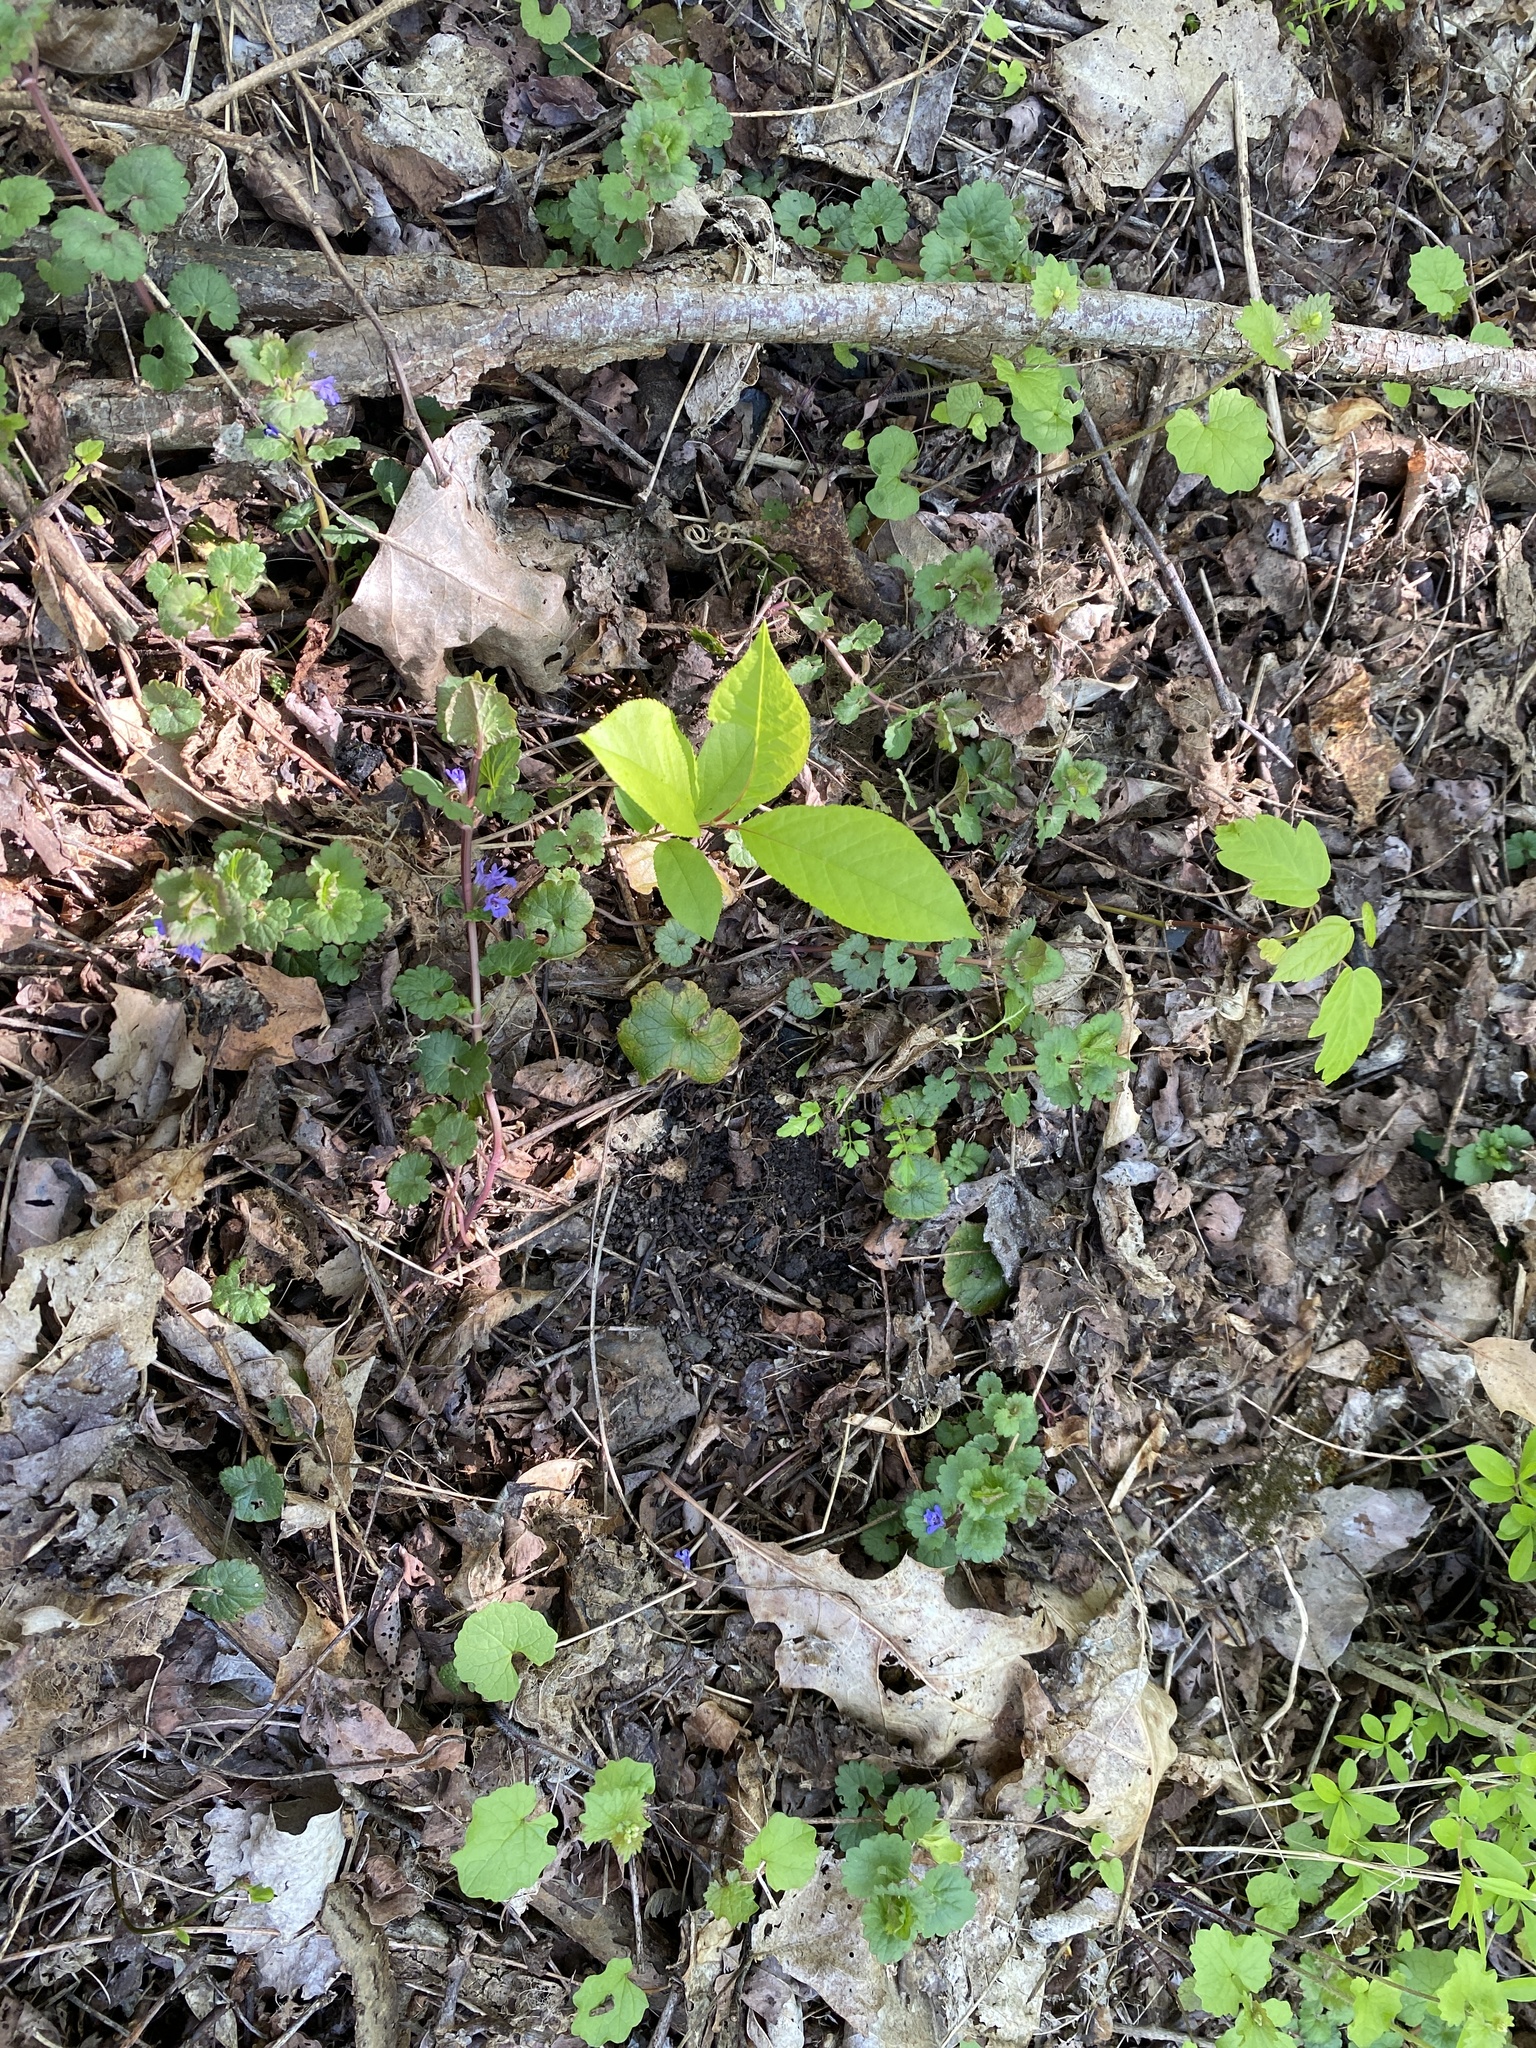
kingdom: Plantae
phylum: Tracheophyta
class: Magnoliopsida
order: Lamiales
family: Lamiaceae
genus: Glechoma
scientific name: Glechoma hederacea
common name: Ground ivy
